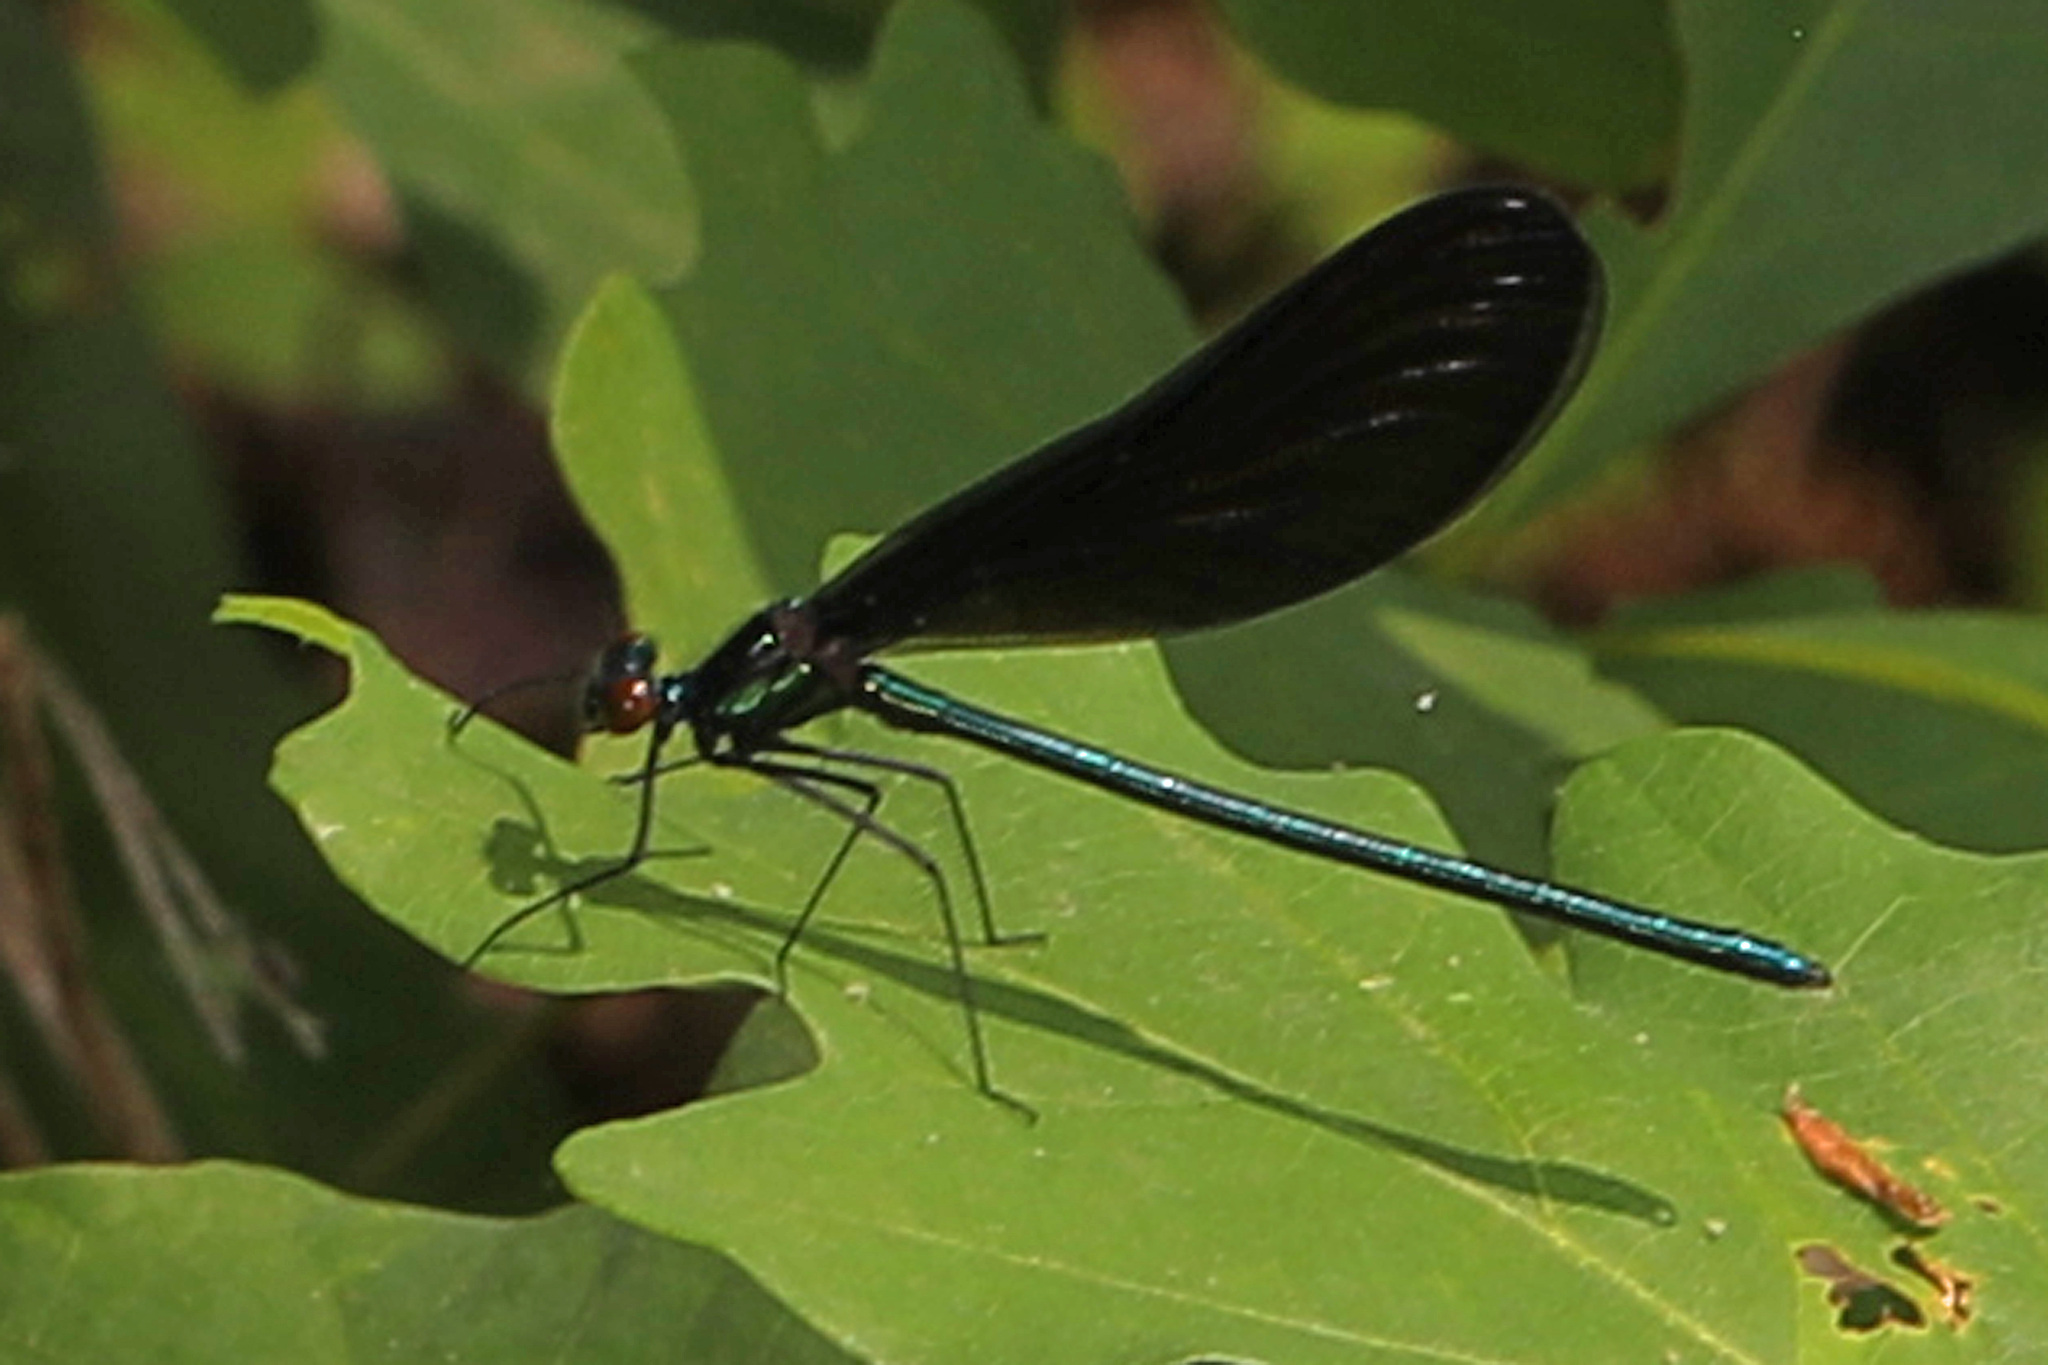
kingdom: Animalia
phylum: Arthropoda
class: Insecta
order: Odonata
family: Calopterygidae
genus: Calopteryx
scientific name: Calopteryx maculata
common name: Ebony jewelwing
